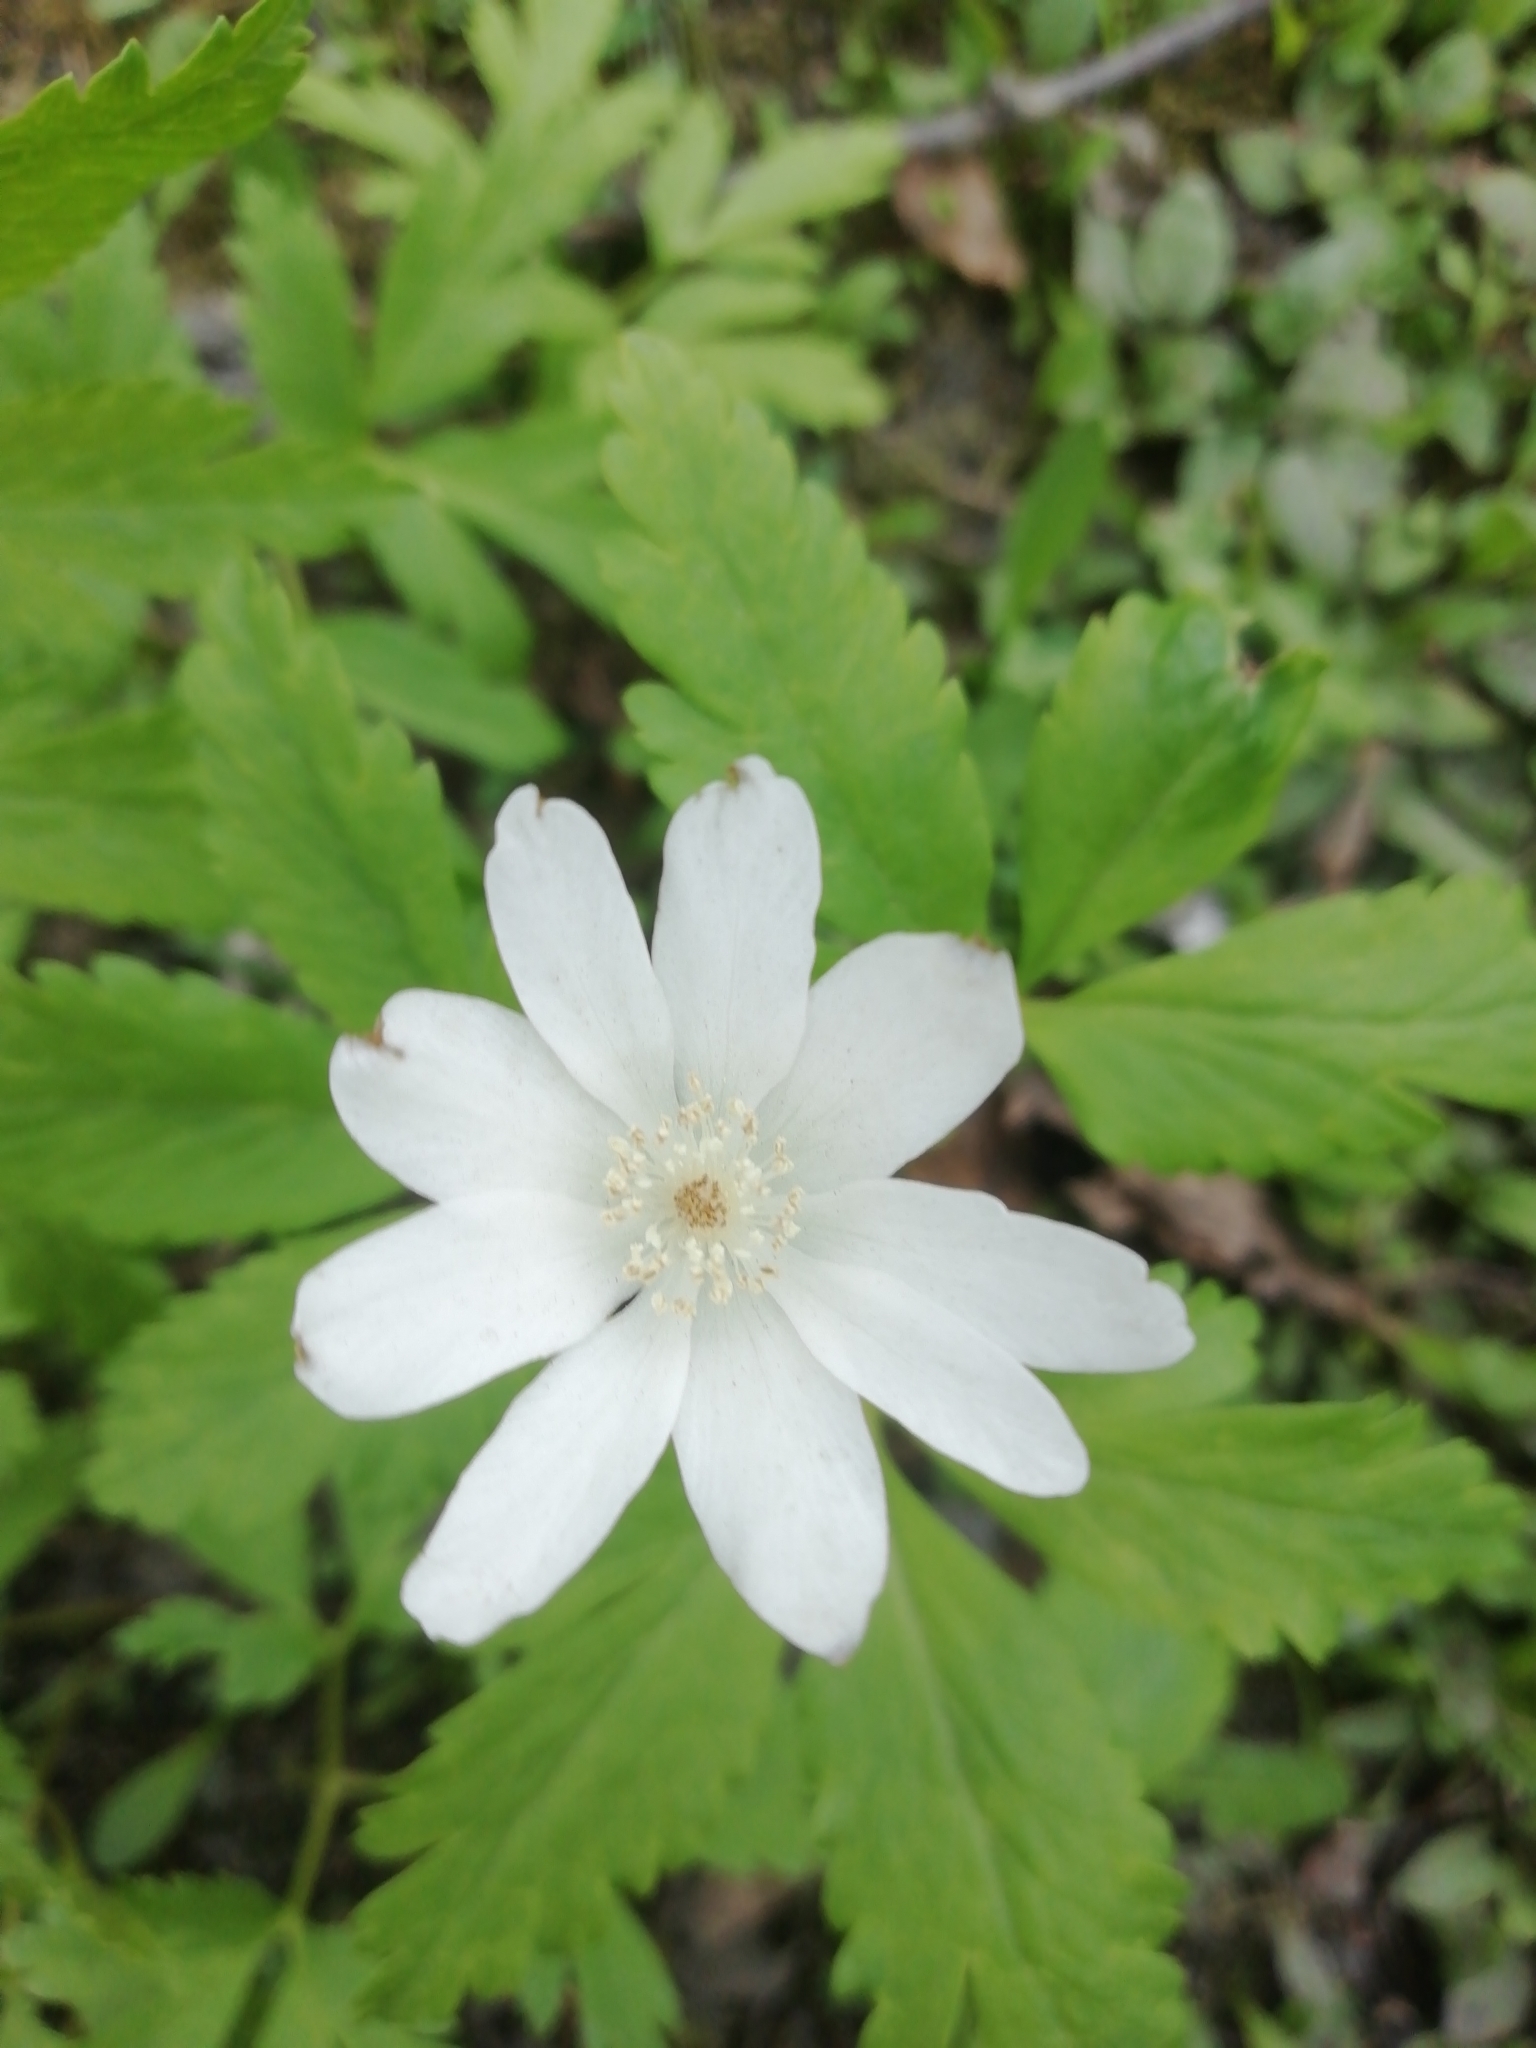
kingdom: Plantae
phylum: Tracheophyta
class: Magnoliopsida
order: Ranunculales
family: Ranunculaceae
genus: Anemone
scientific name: Anemone altaica
